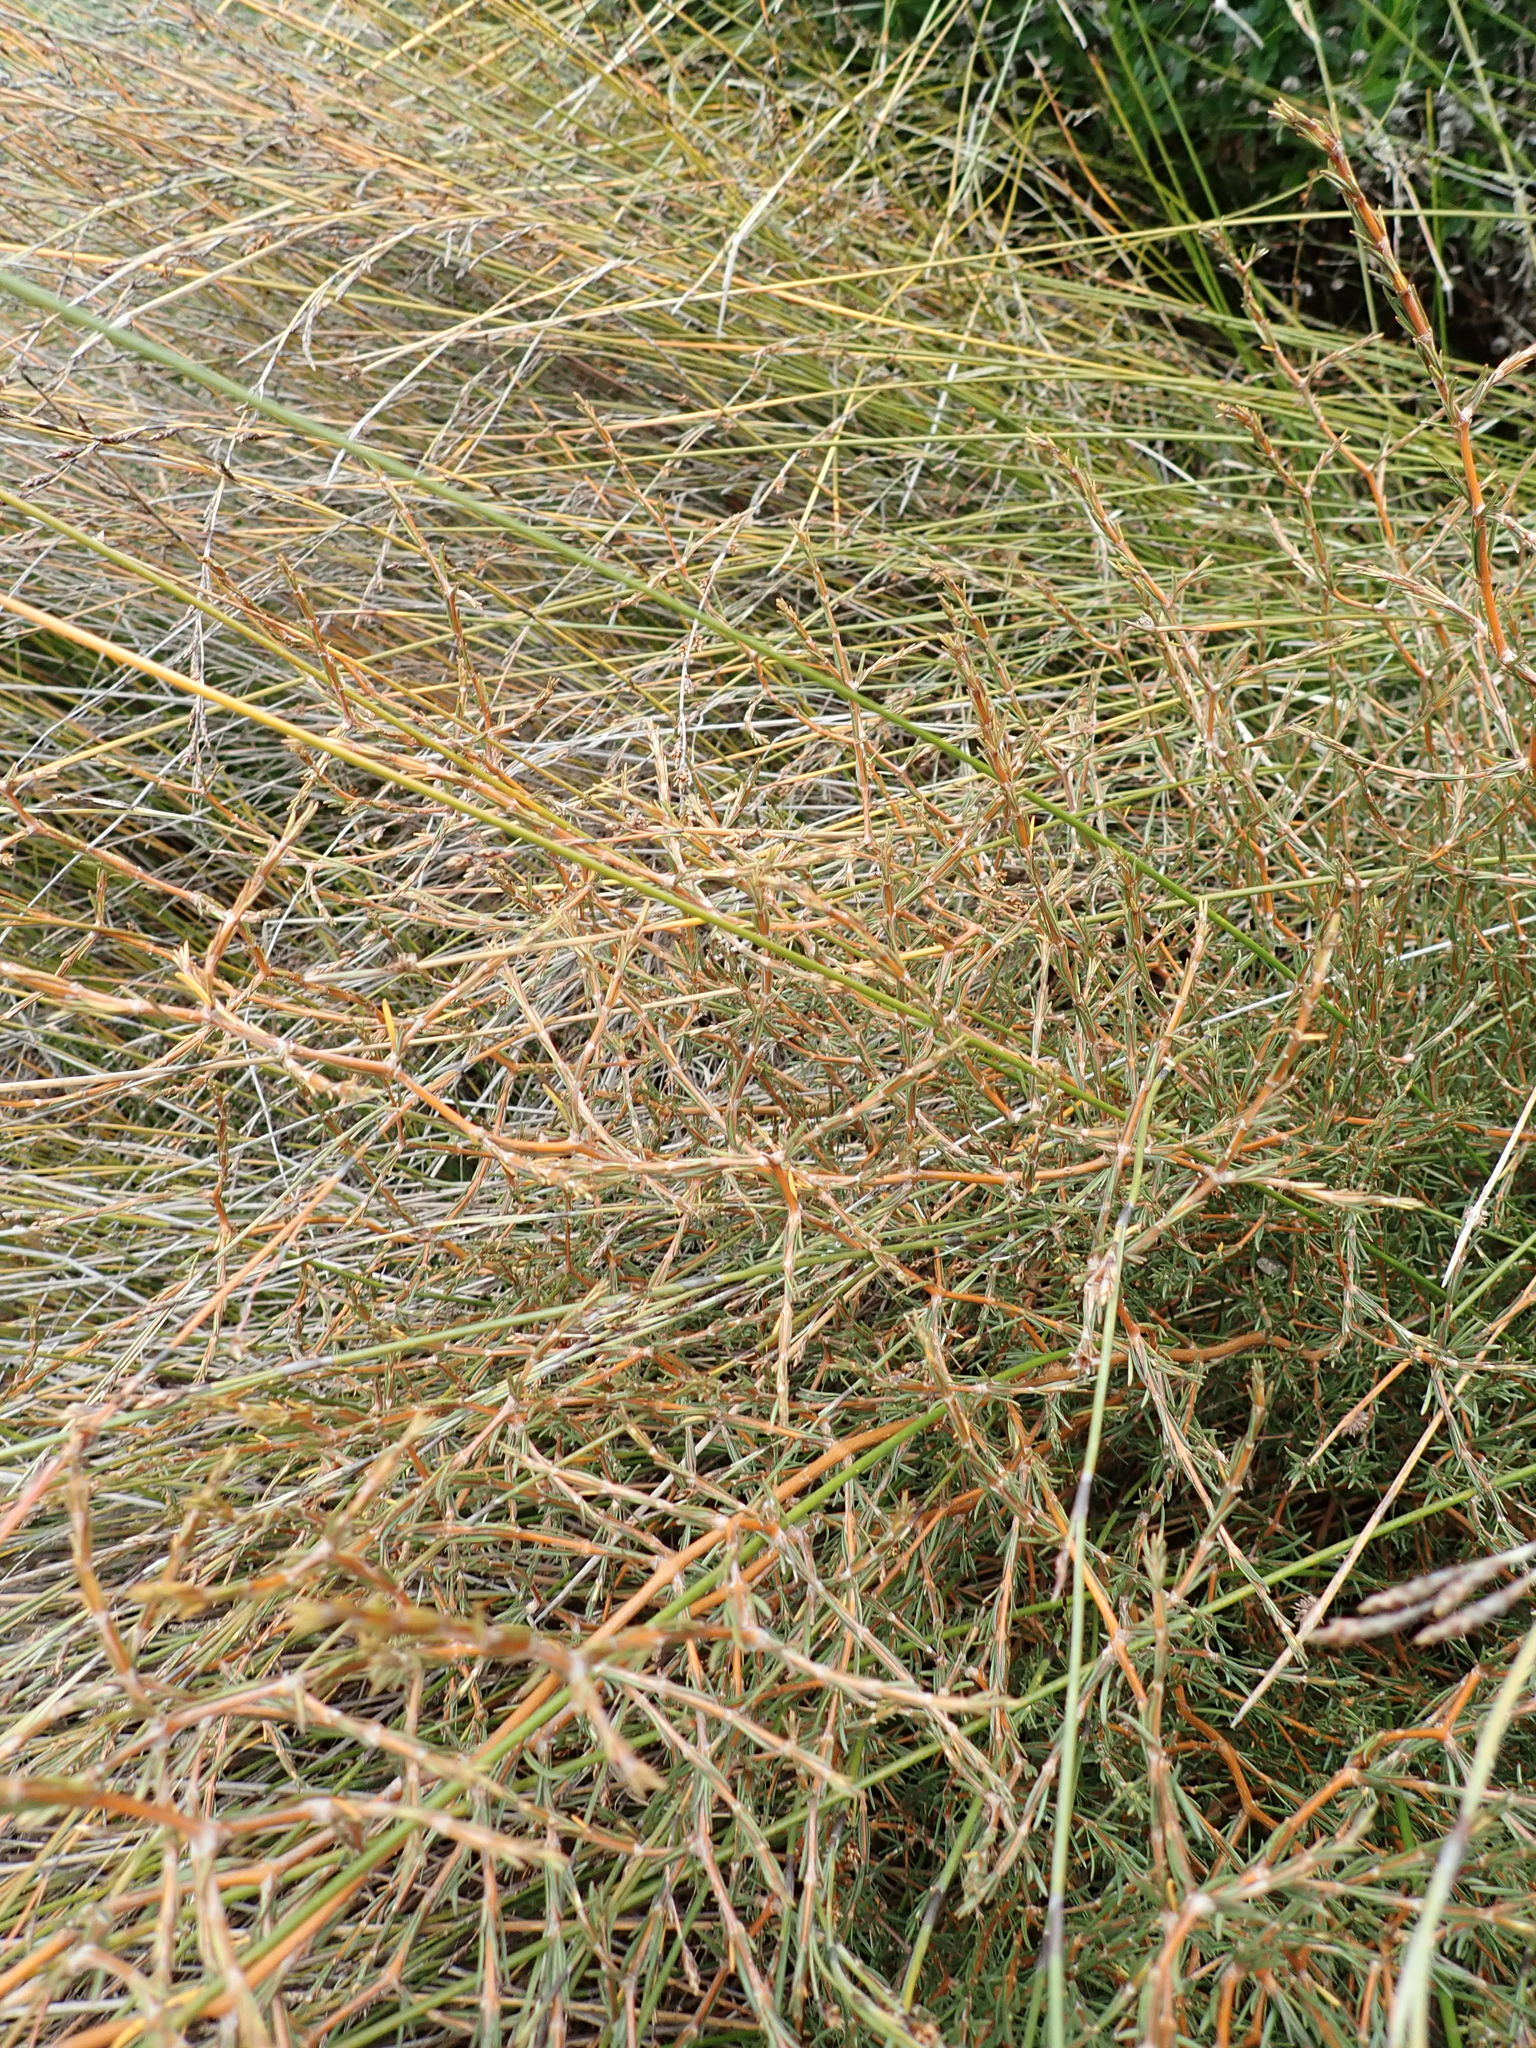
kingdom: Plantae
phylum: Tracheophyta
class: Magnoliopsida
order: Gentianales
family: Rubiaceae
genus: Coprosma
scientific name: Coprosma acerosa
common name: Sand coprosma
